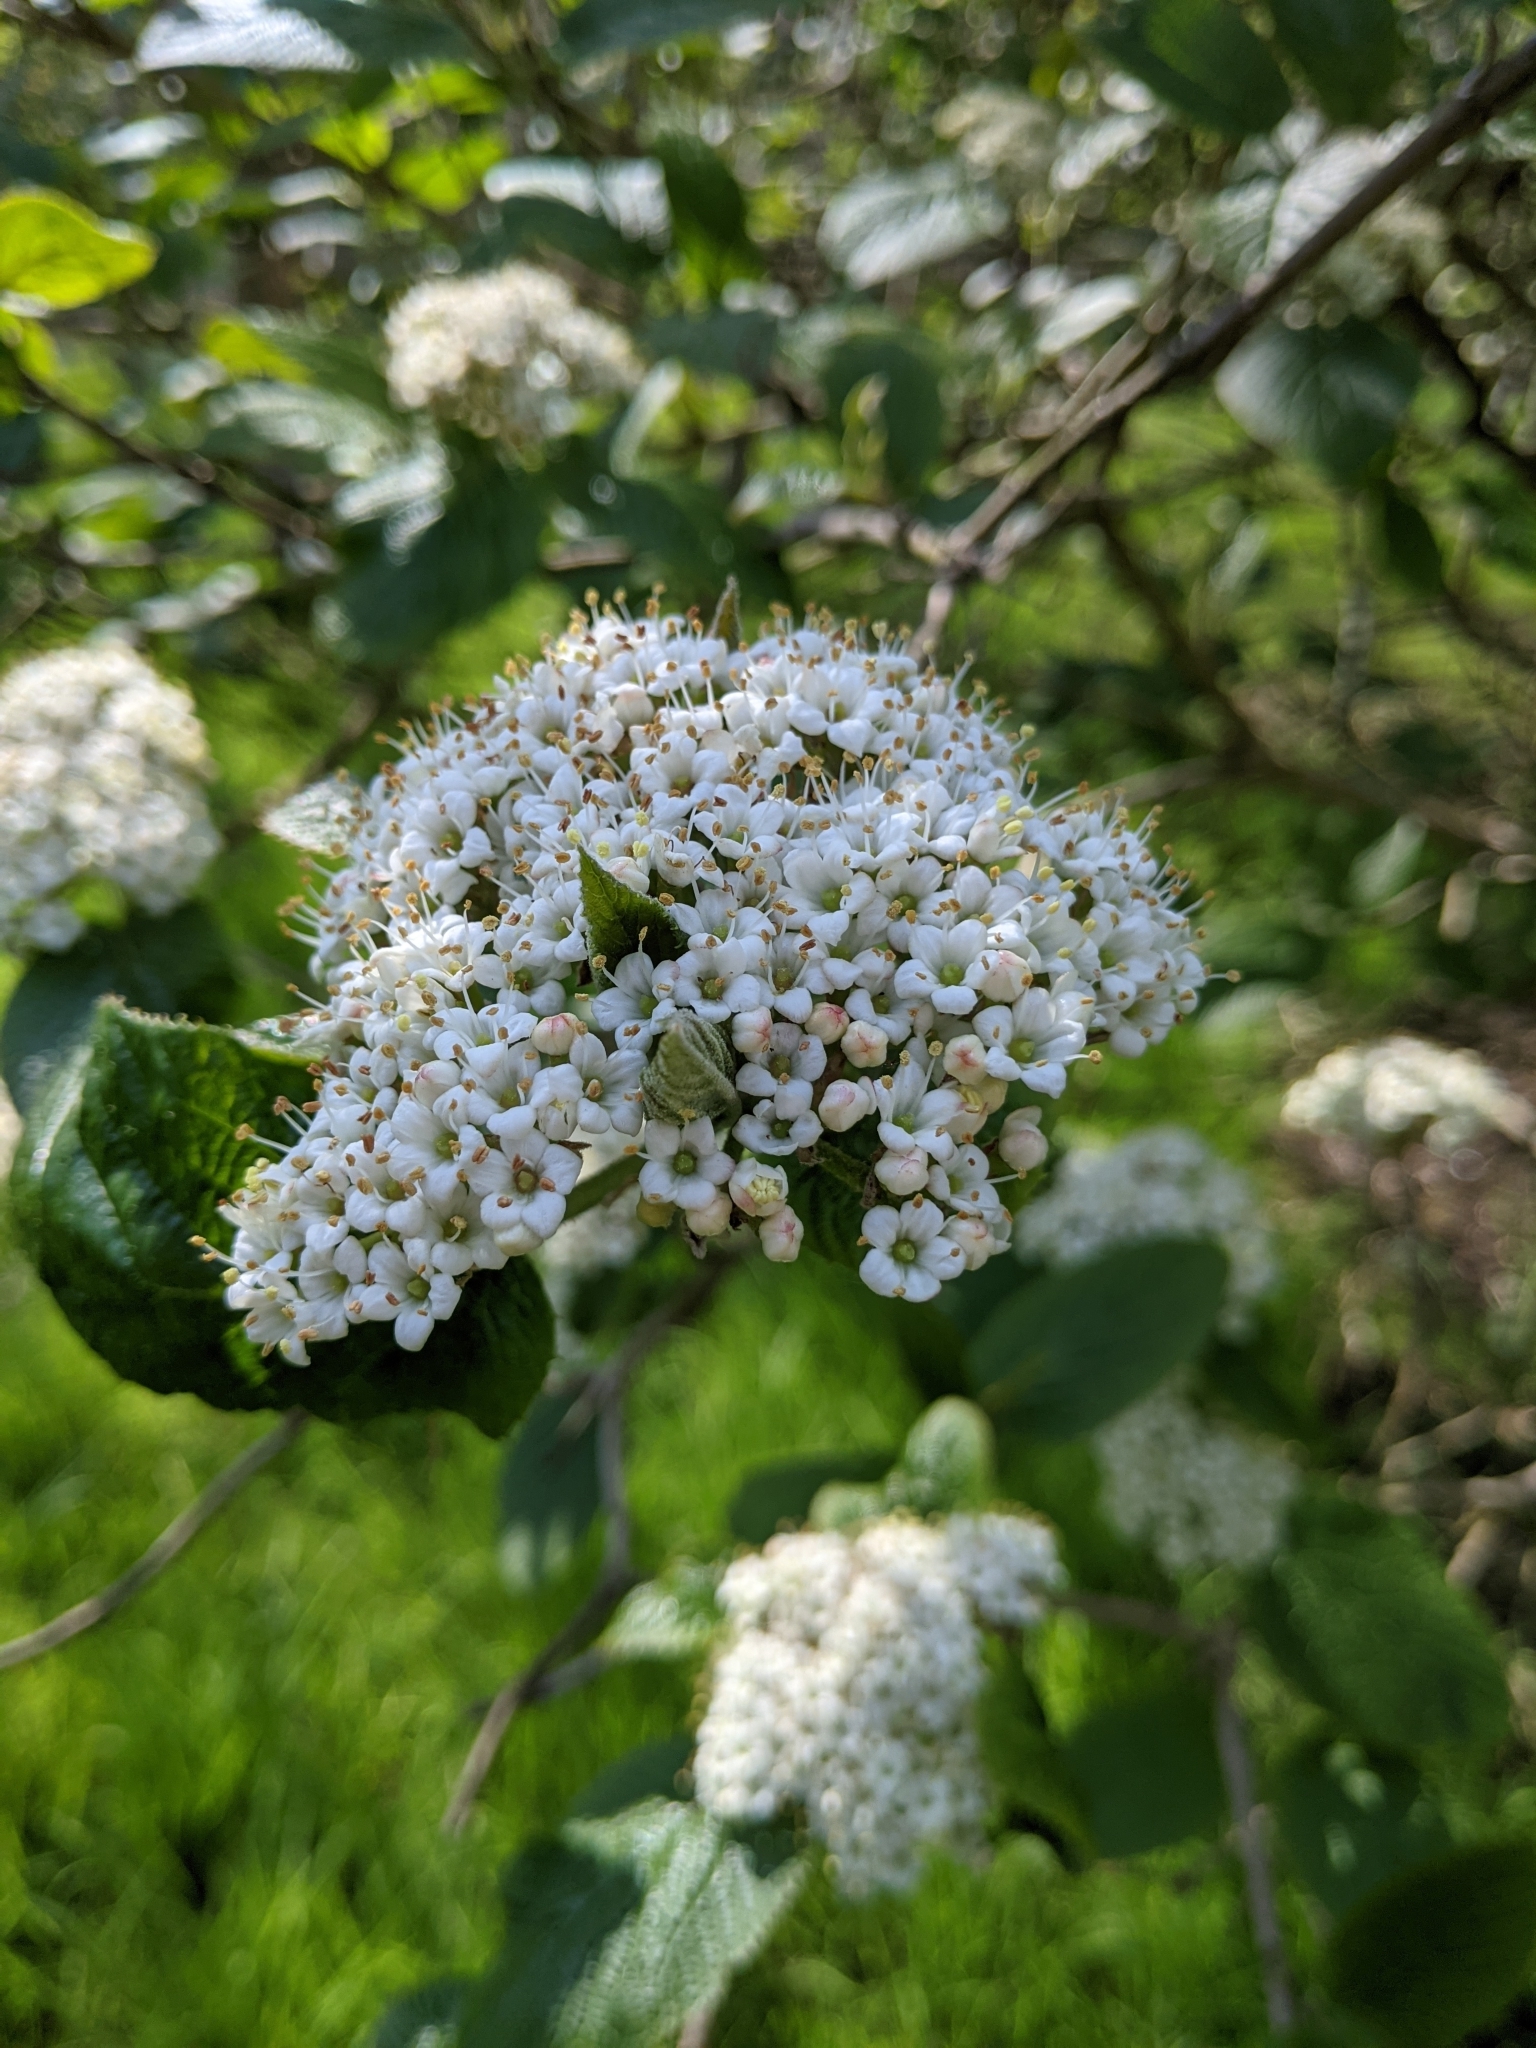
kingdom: Plantae
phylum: Tracheophyta
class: Magnoliopsida
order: Dipsacales
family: Viburnaceae
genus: Viburnum
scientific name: Viburnum lantana
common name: Wayfaring tree
